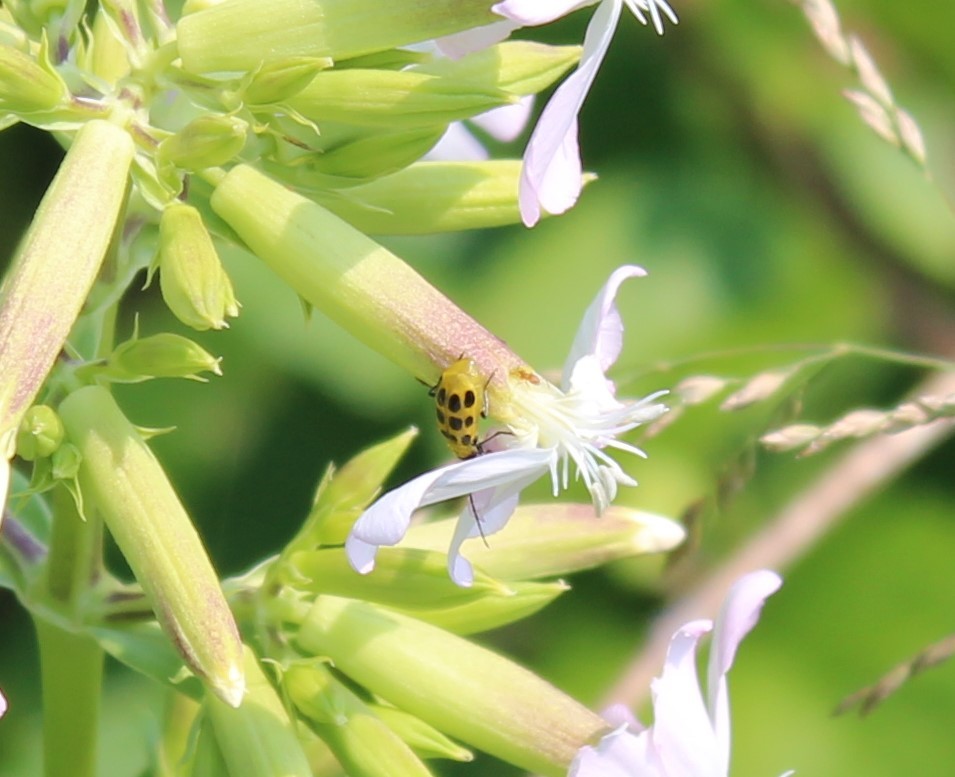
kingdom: Animalia
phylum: Arthropoda
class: Insecta
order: Coleoptera
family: Chrysomelidae
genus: Diabrotica
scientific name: Diabrotica undecimpunctata
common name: Spotted cucumber beetle
